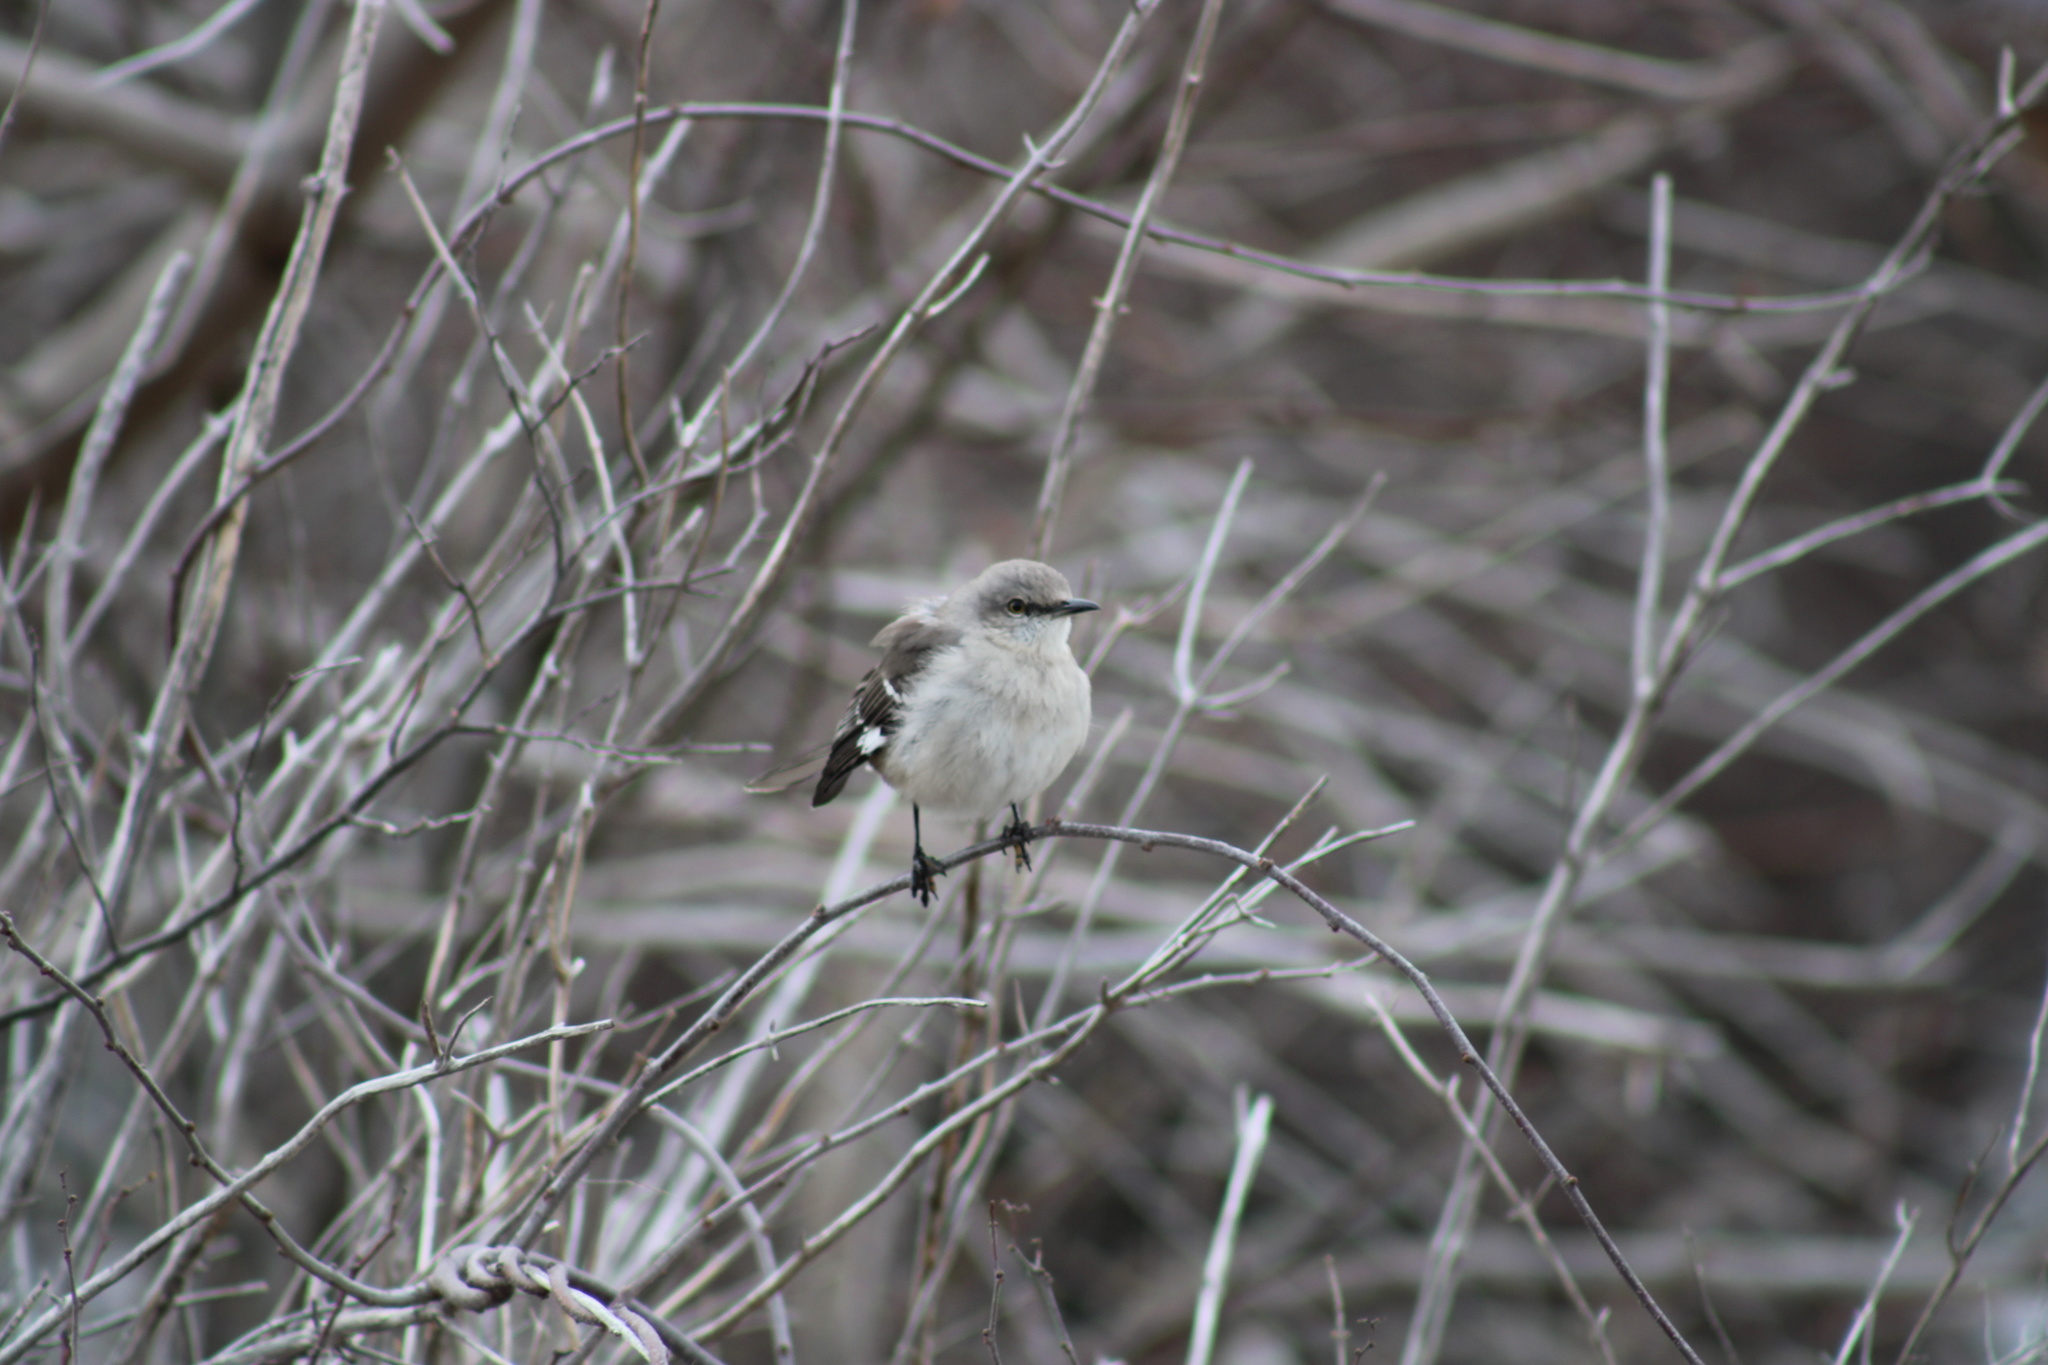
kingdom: Animalia
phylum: Chordata
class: Aves
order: Passeriformes
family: Mimidae
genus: Mimus
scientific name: Mimus polyglottos
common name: Northern mockingbird
